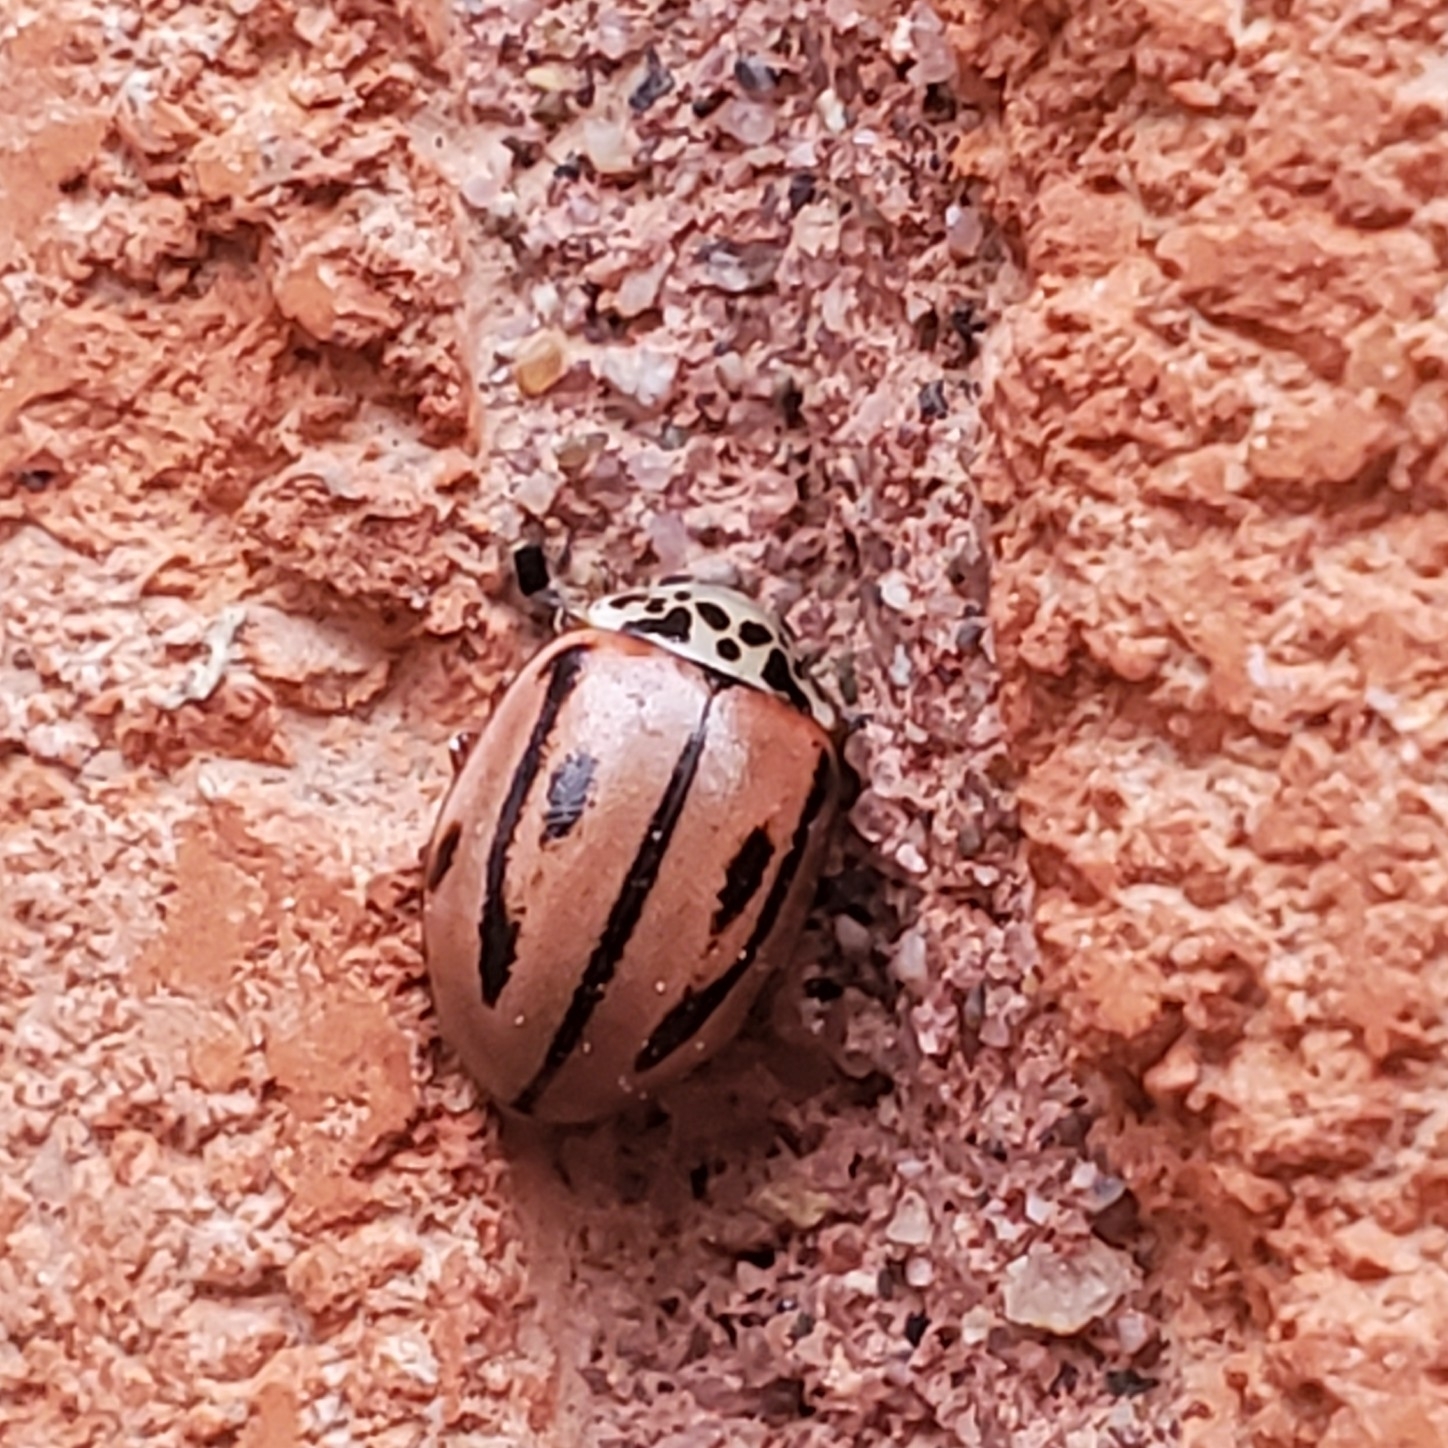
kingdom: Animalia
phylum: Arthropoda
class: Insecta
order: Coleoptera
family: Coccinellidae
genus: Mulsantina
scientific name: Mulsantina hudsonica
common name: Hudsonian ladybird
